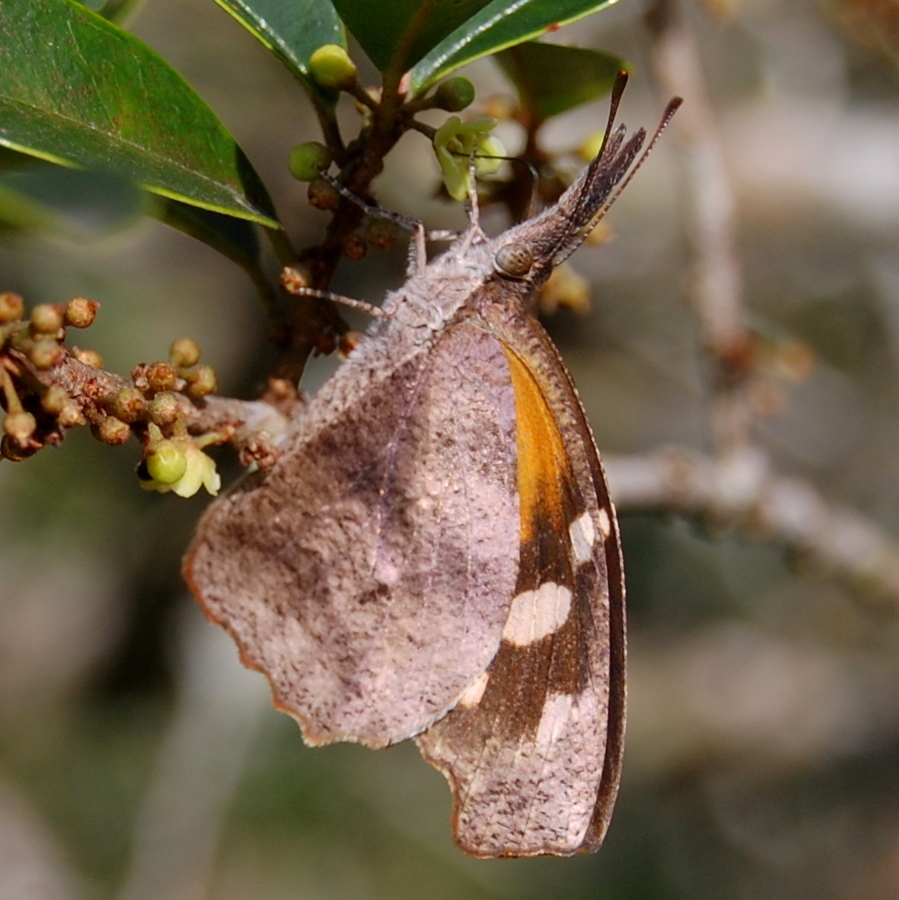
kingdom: Animalia
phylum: Arthropoda
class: Insecta
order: Lepidoptera
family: Nymphalidae
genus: Libytheana
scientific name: Libytheana carinenta
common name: American snout
